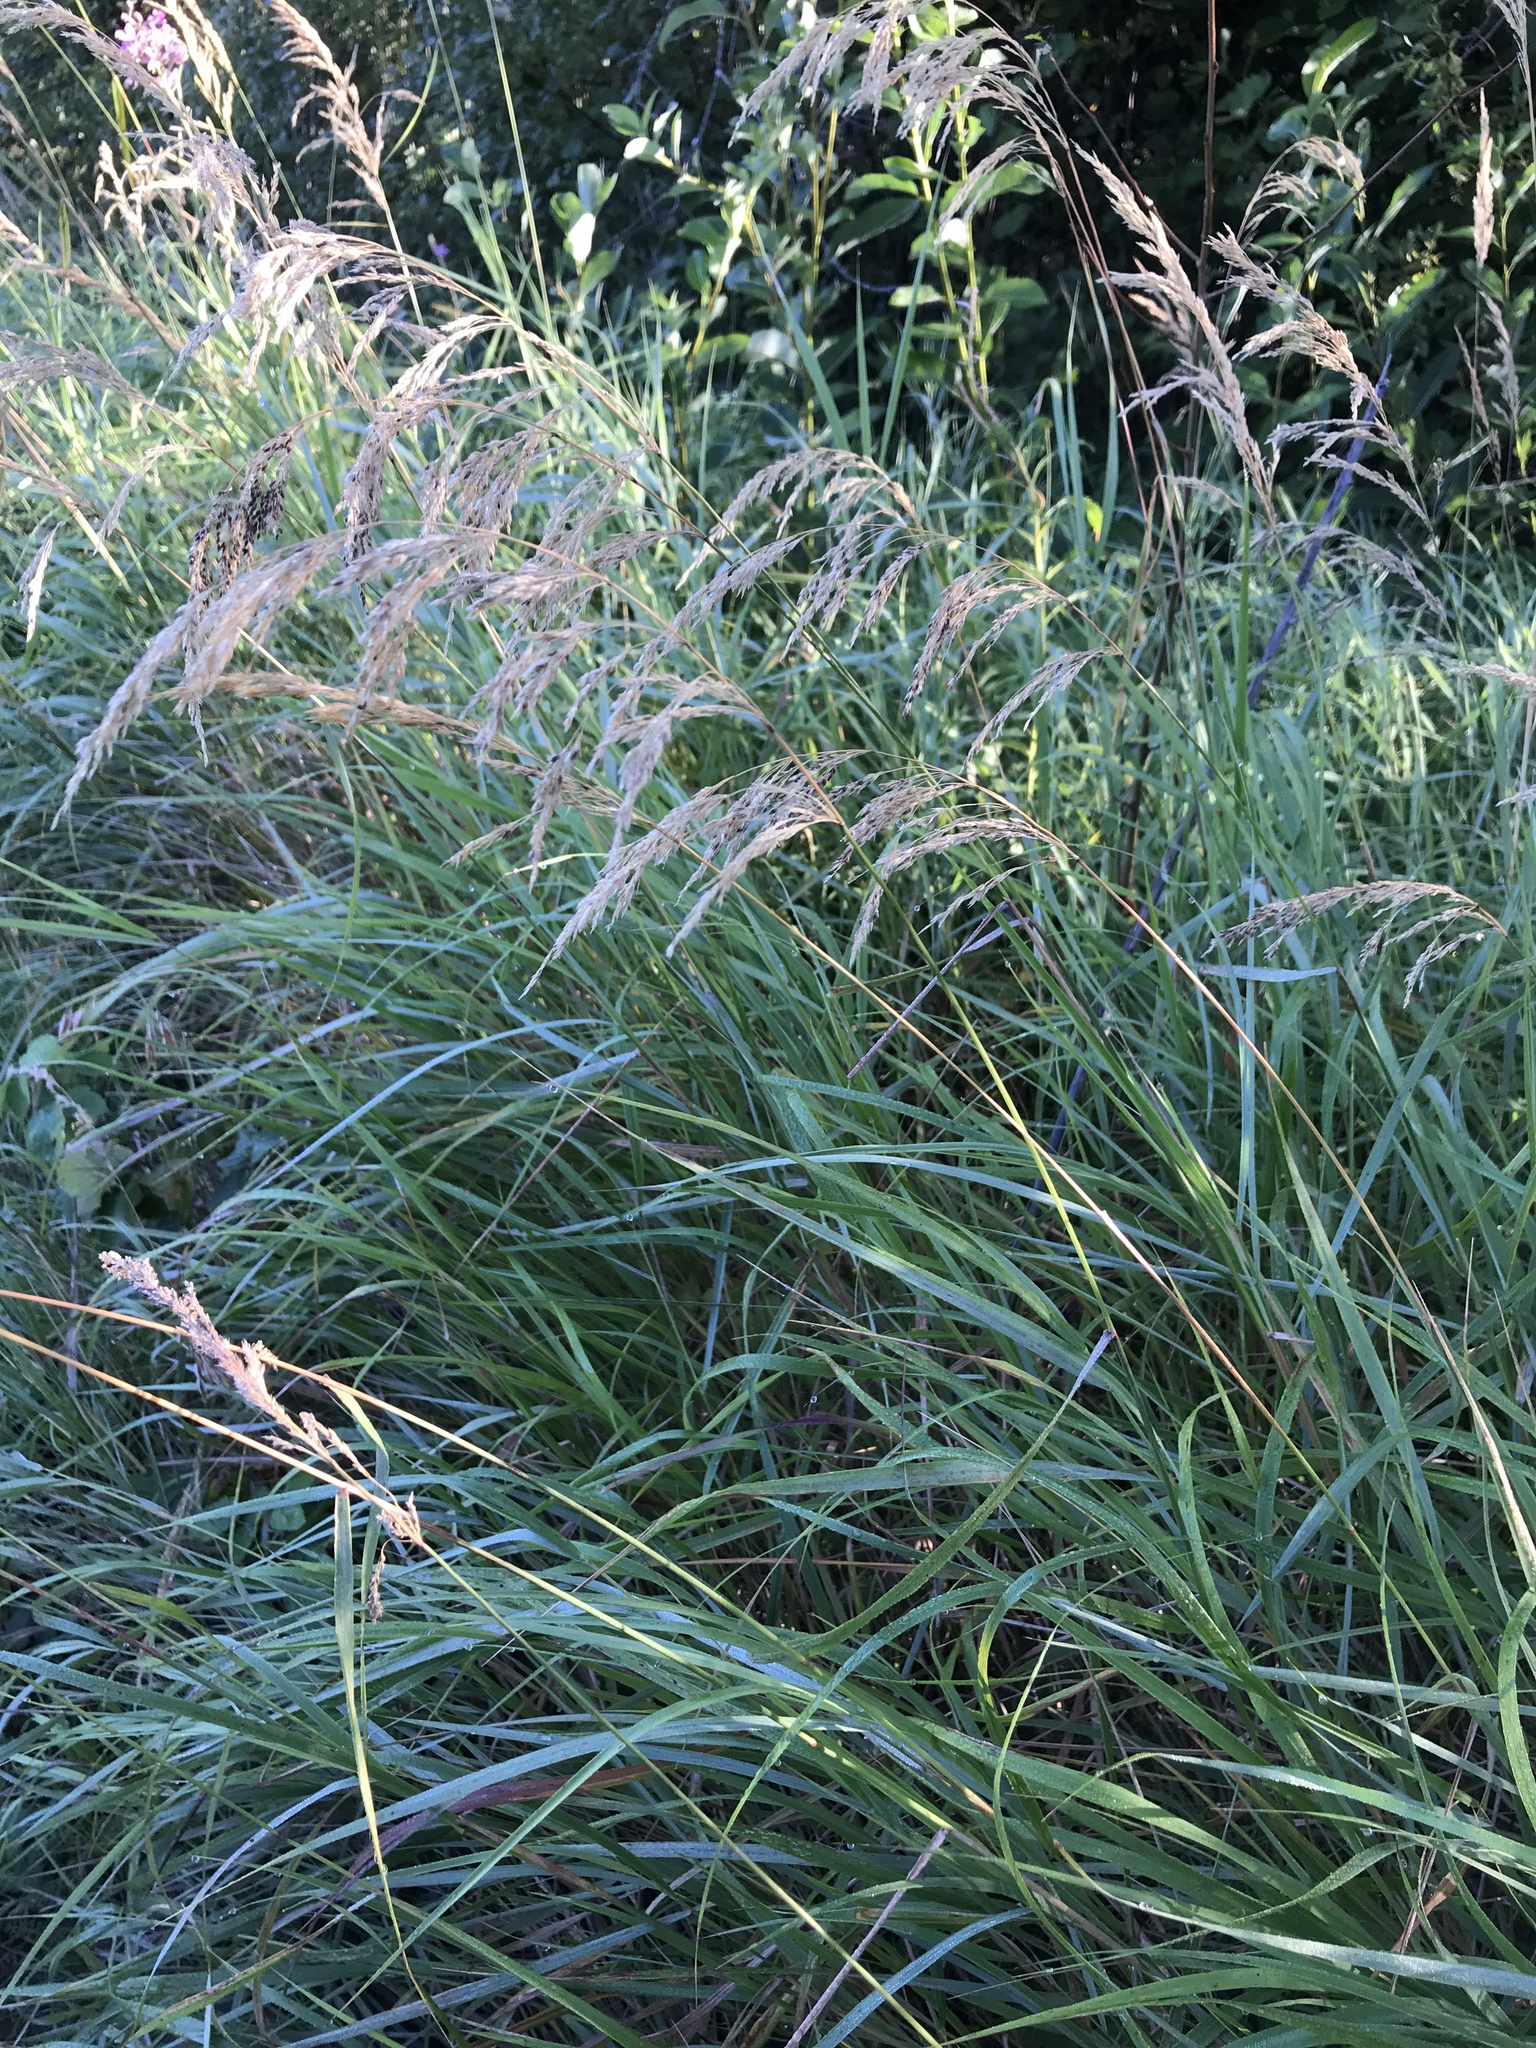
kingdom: Plantae
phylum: Tracheophyta
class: Liliopsida
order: Poales
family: Poaceae
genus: Calamagrostis
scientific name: Calamagrostis canadensis
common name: Canada bluejoint
